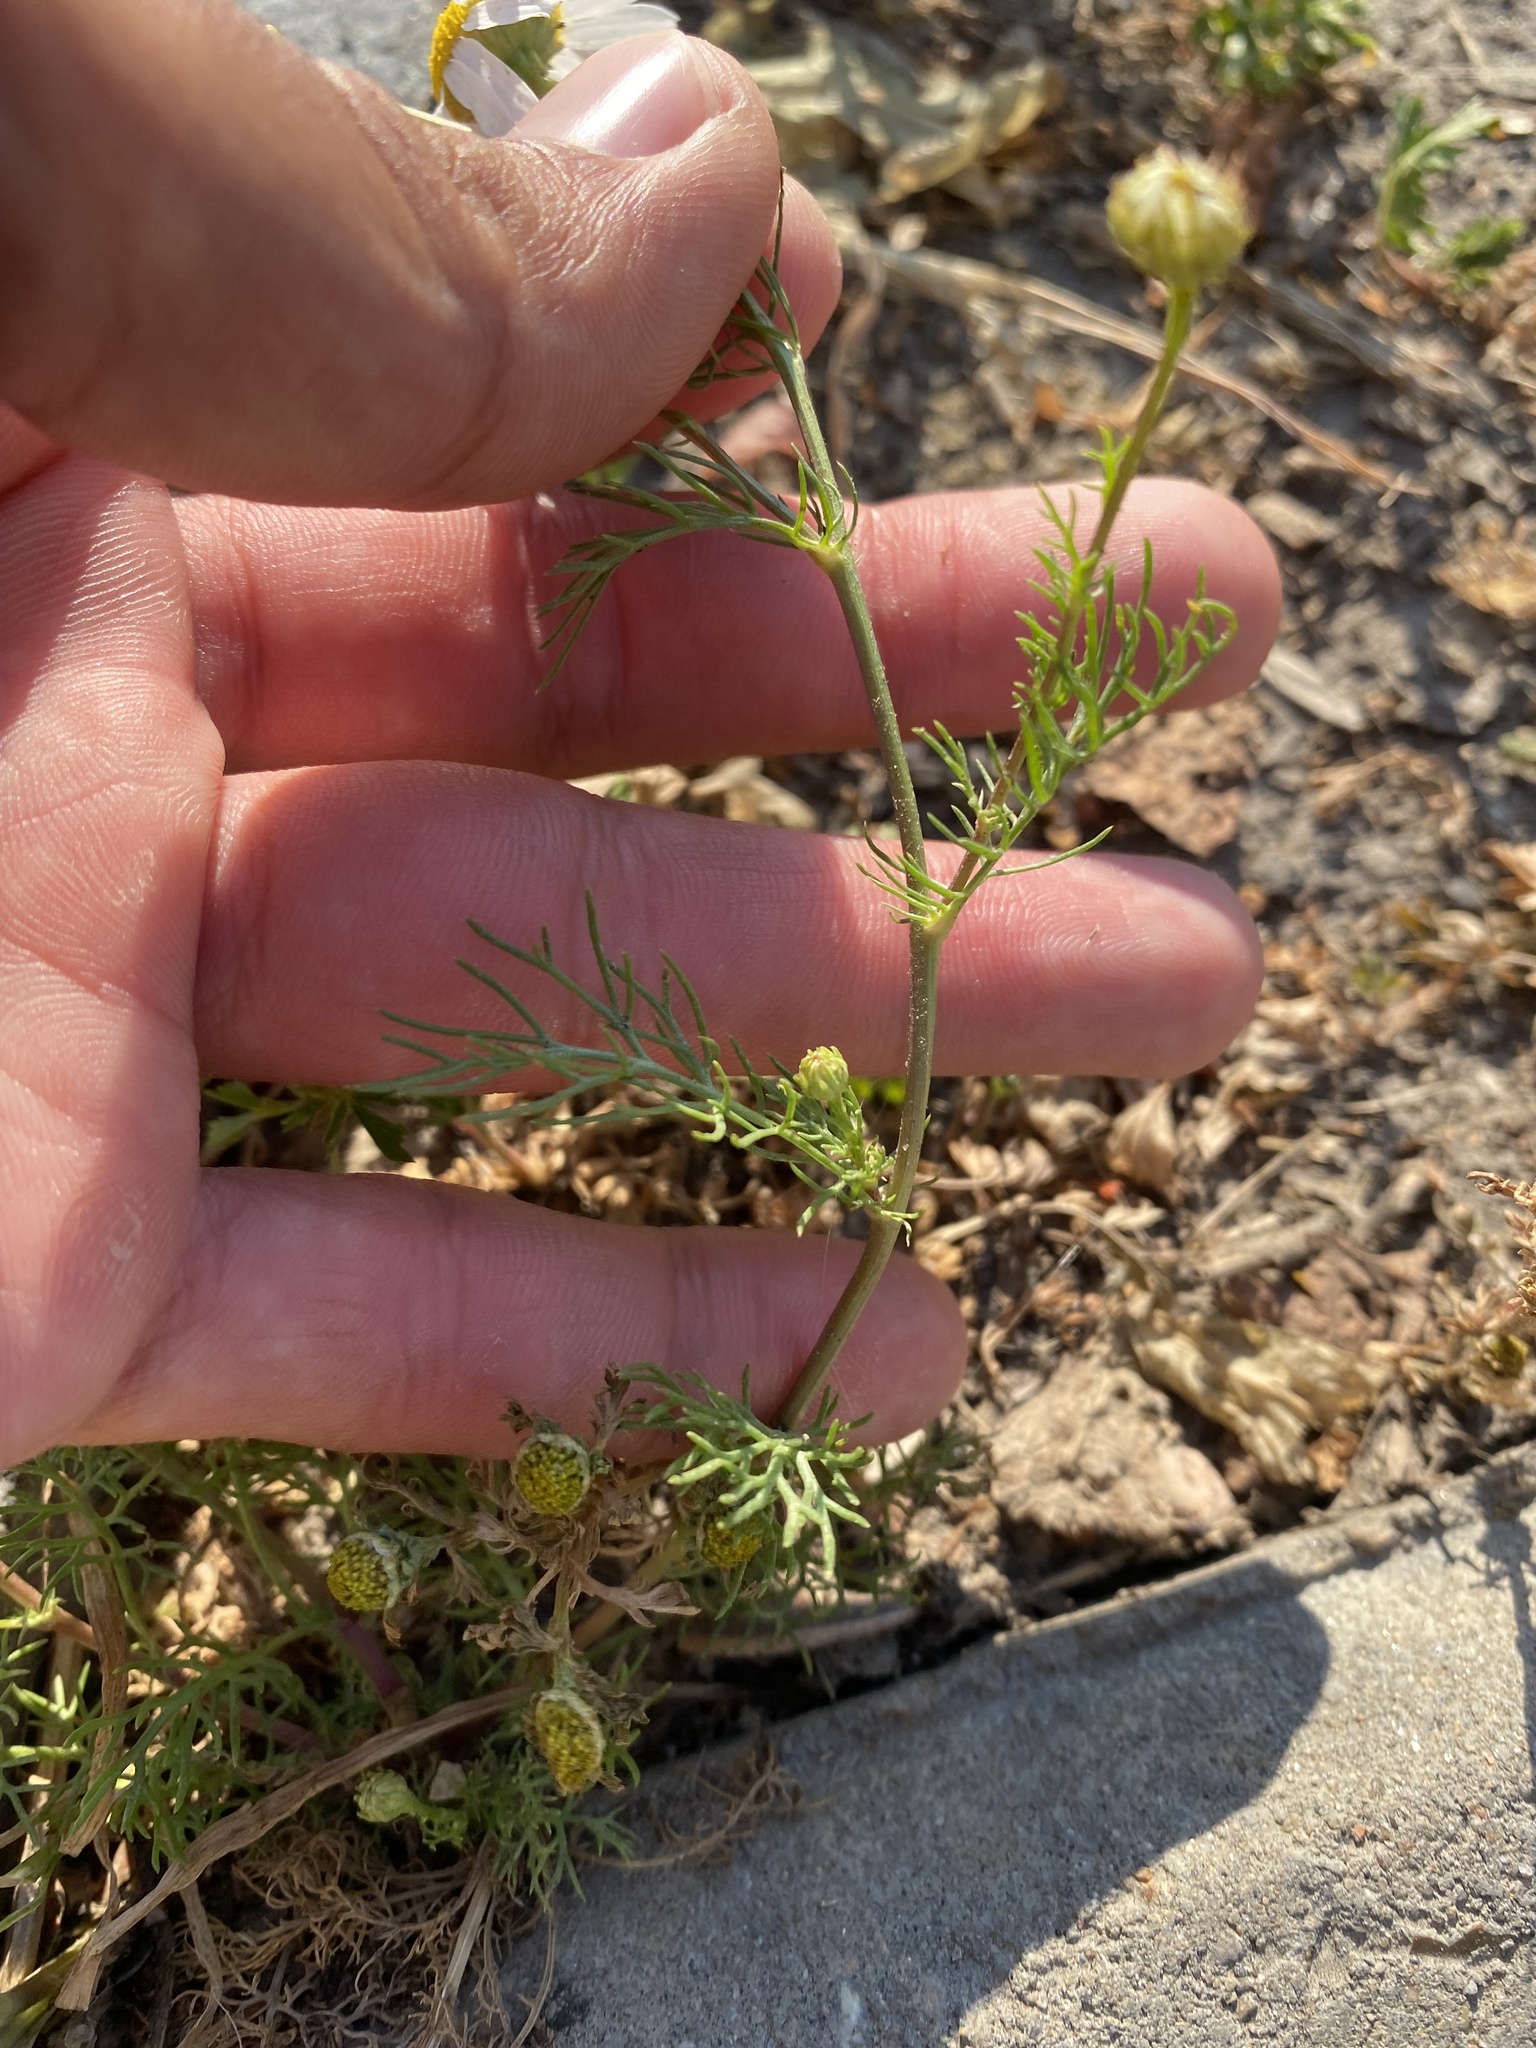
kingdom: Plantae
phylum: Tracheophyta
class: Magnoliopsida
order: Asterales
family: Asteraceae
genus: Tripleurospermum
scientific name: Tripleurospermum inodorum
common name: Scentless mayweed
